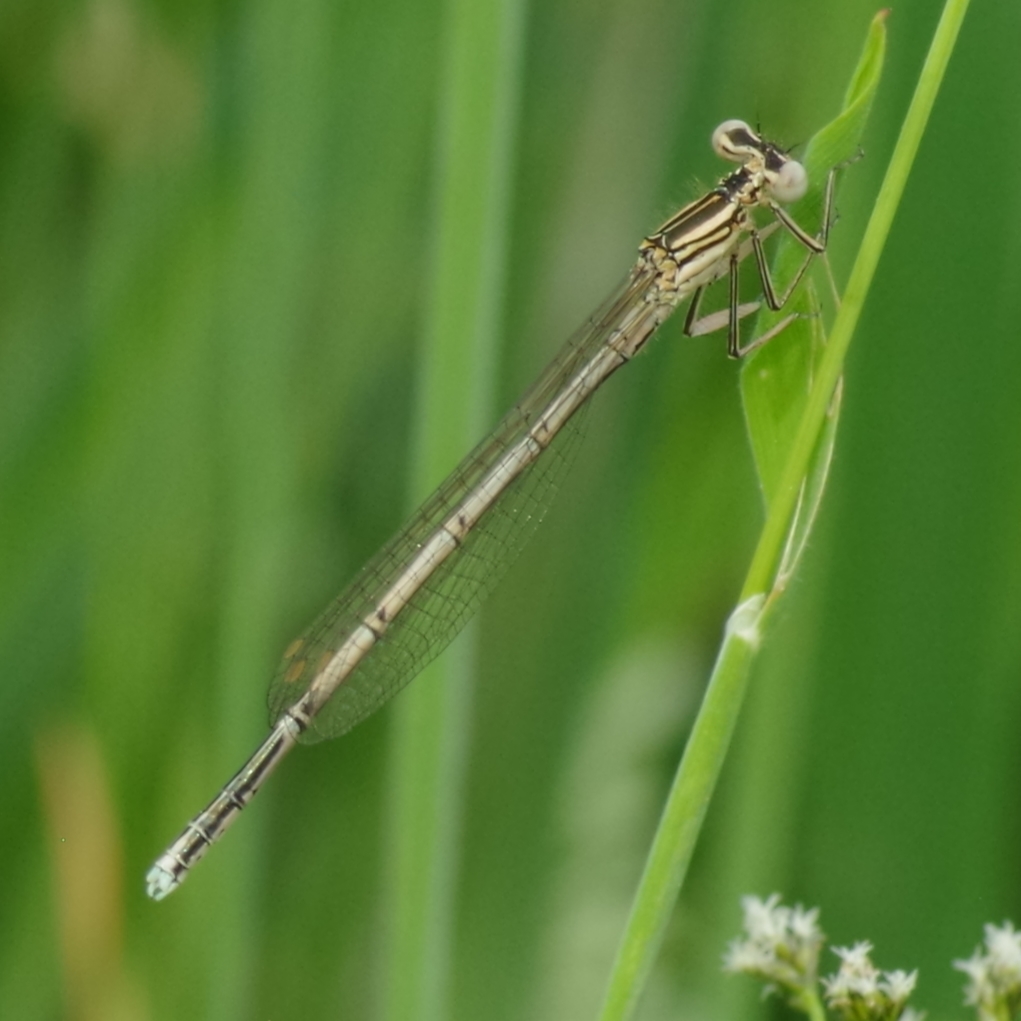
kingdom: Animalia
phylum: Arthropoda
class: Insecta
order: Odonata
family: Platycnemididae
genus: Platycnemis
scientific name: Platycnemis pennipes
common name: White-legged damselfly
